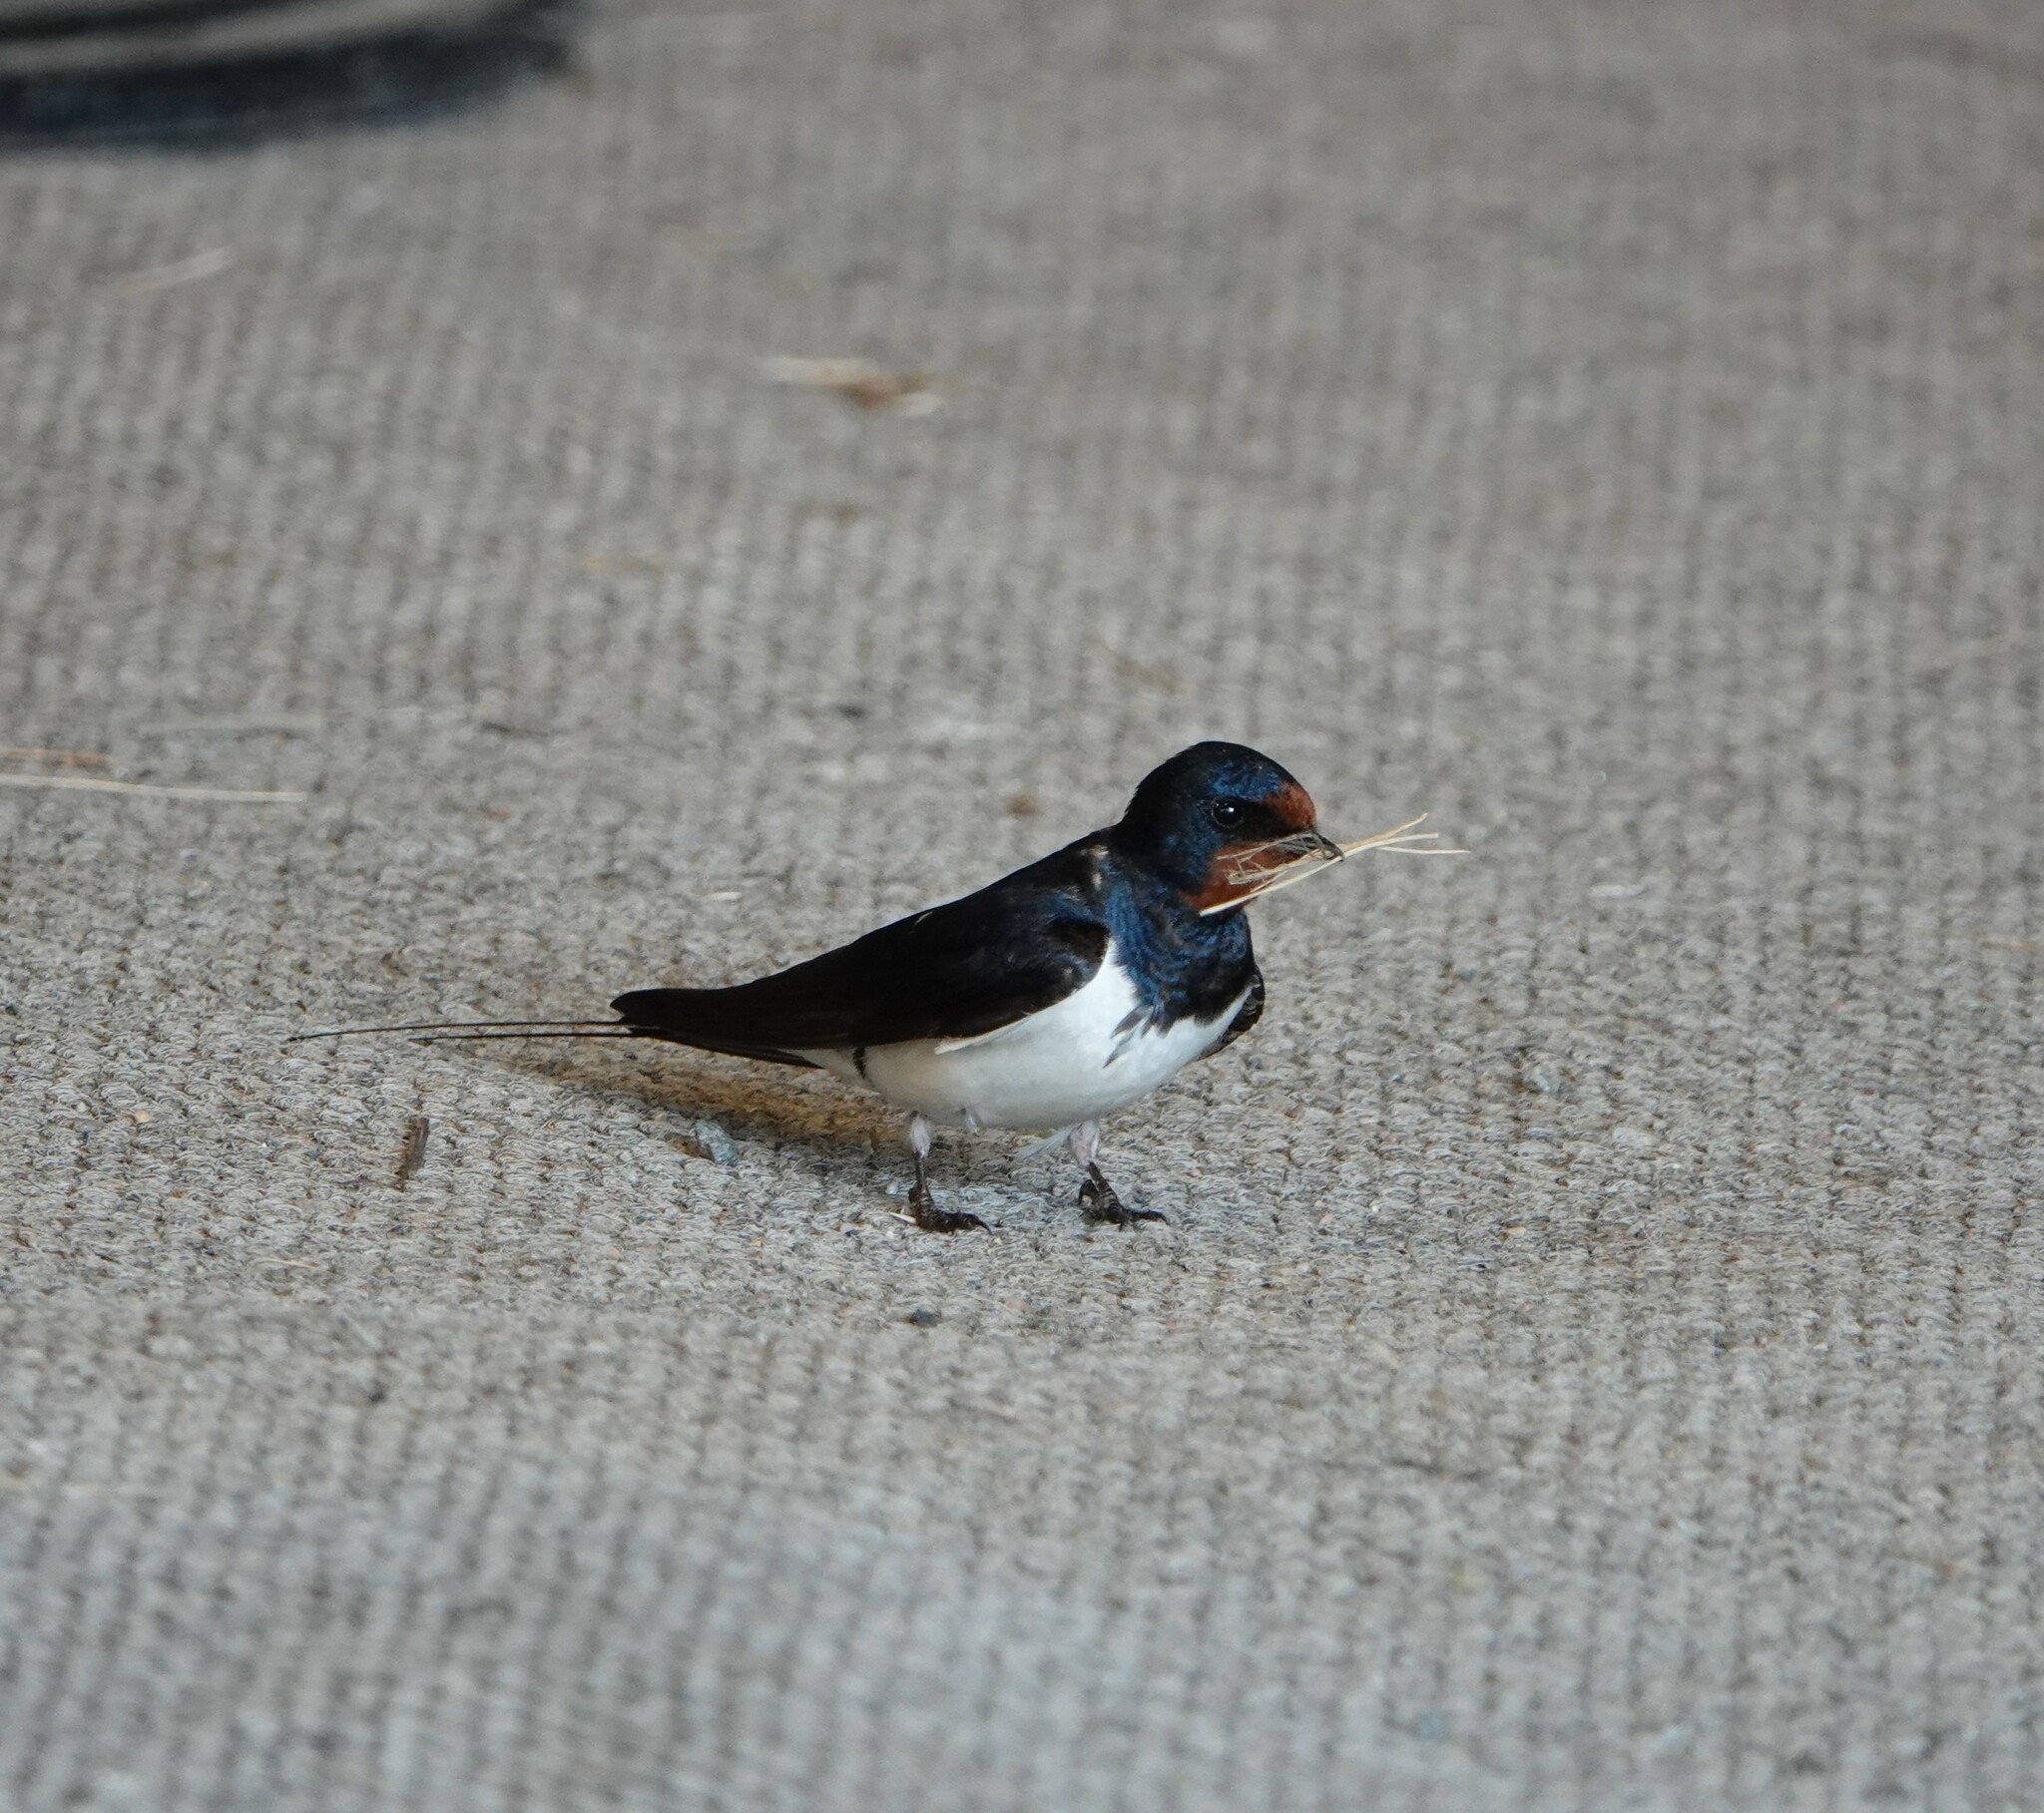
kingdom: Animalia
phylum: Chordata
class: Aves
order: Passeriformes
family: Hirundinidae
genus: Hirundo
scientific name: Hirundo rustica
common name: Barn swallow
